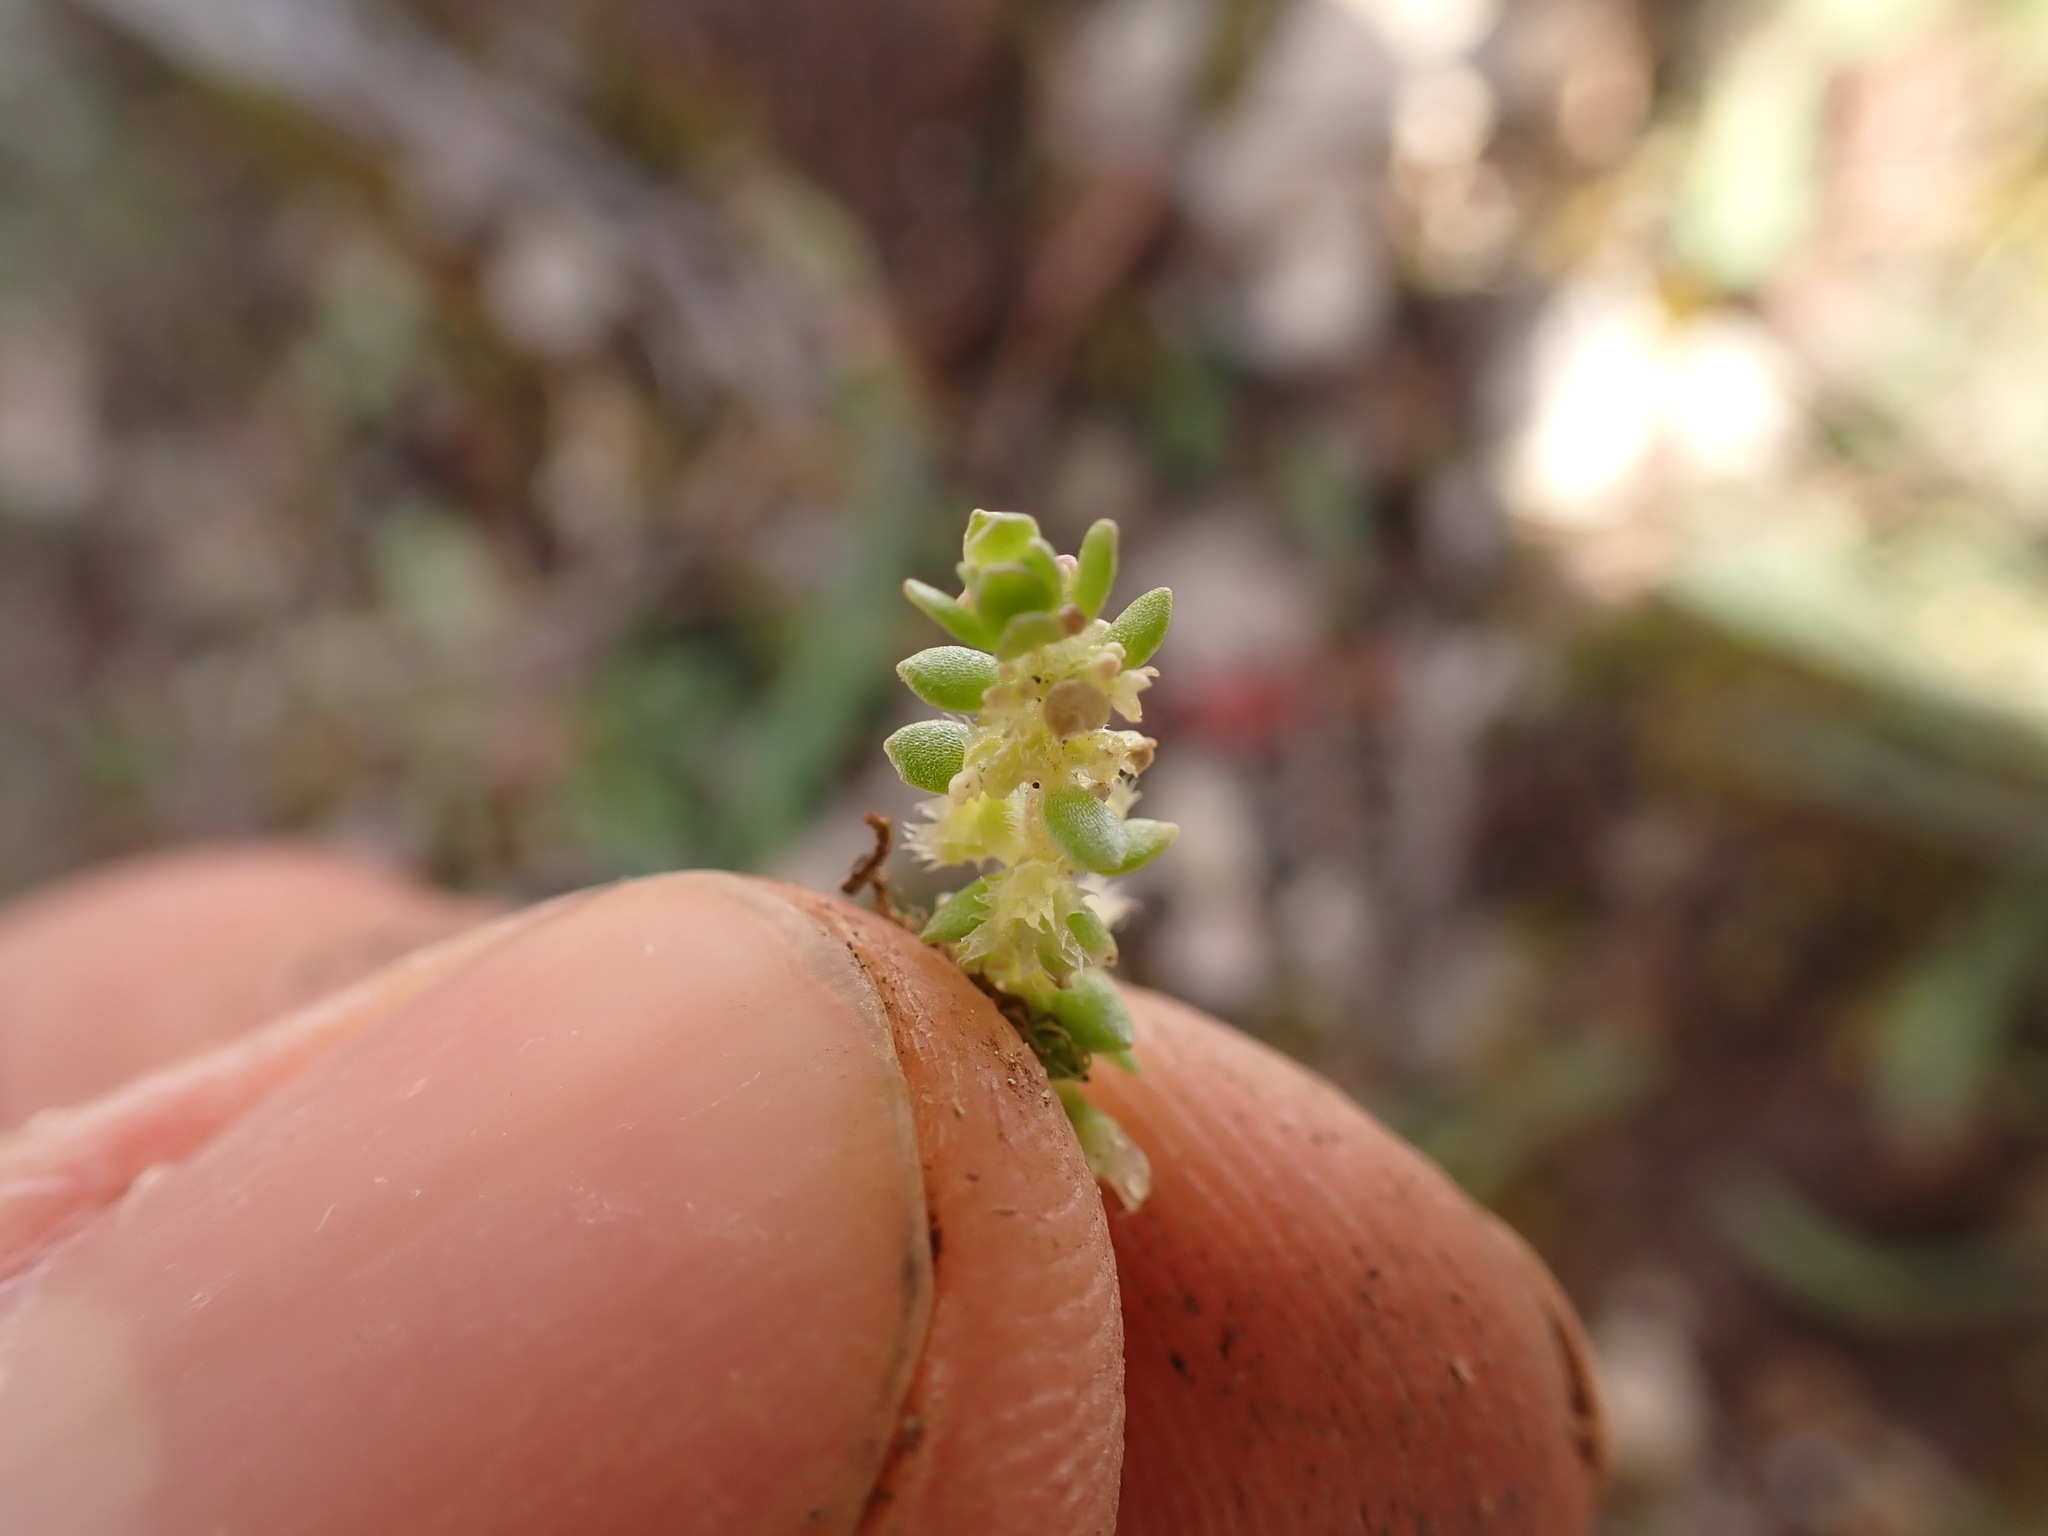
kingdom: Plantae
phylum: Tracheophyta
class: Magnoliopsida
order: Gentianales
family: Rubiaceae
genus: Valantia
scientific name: Valantia muralis
